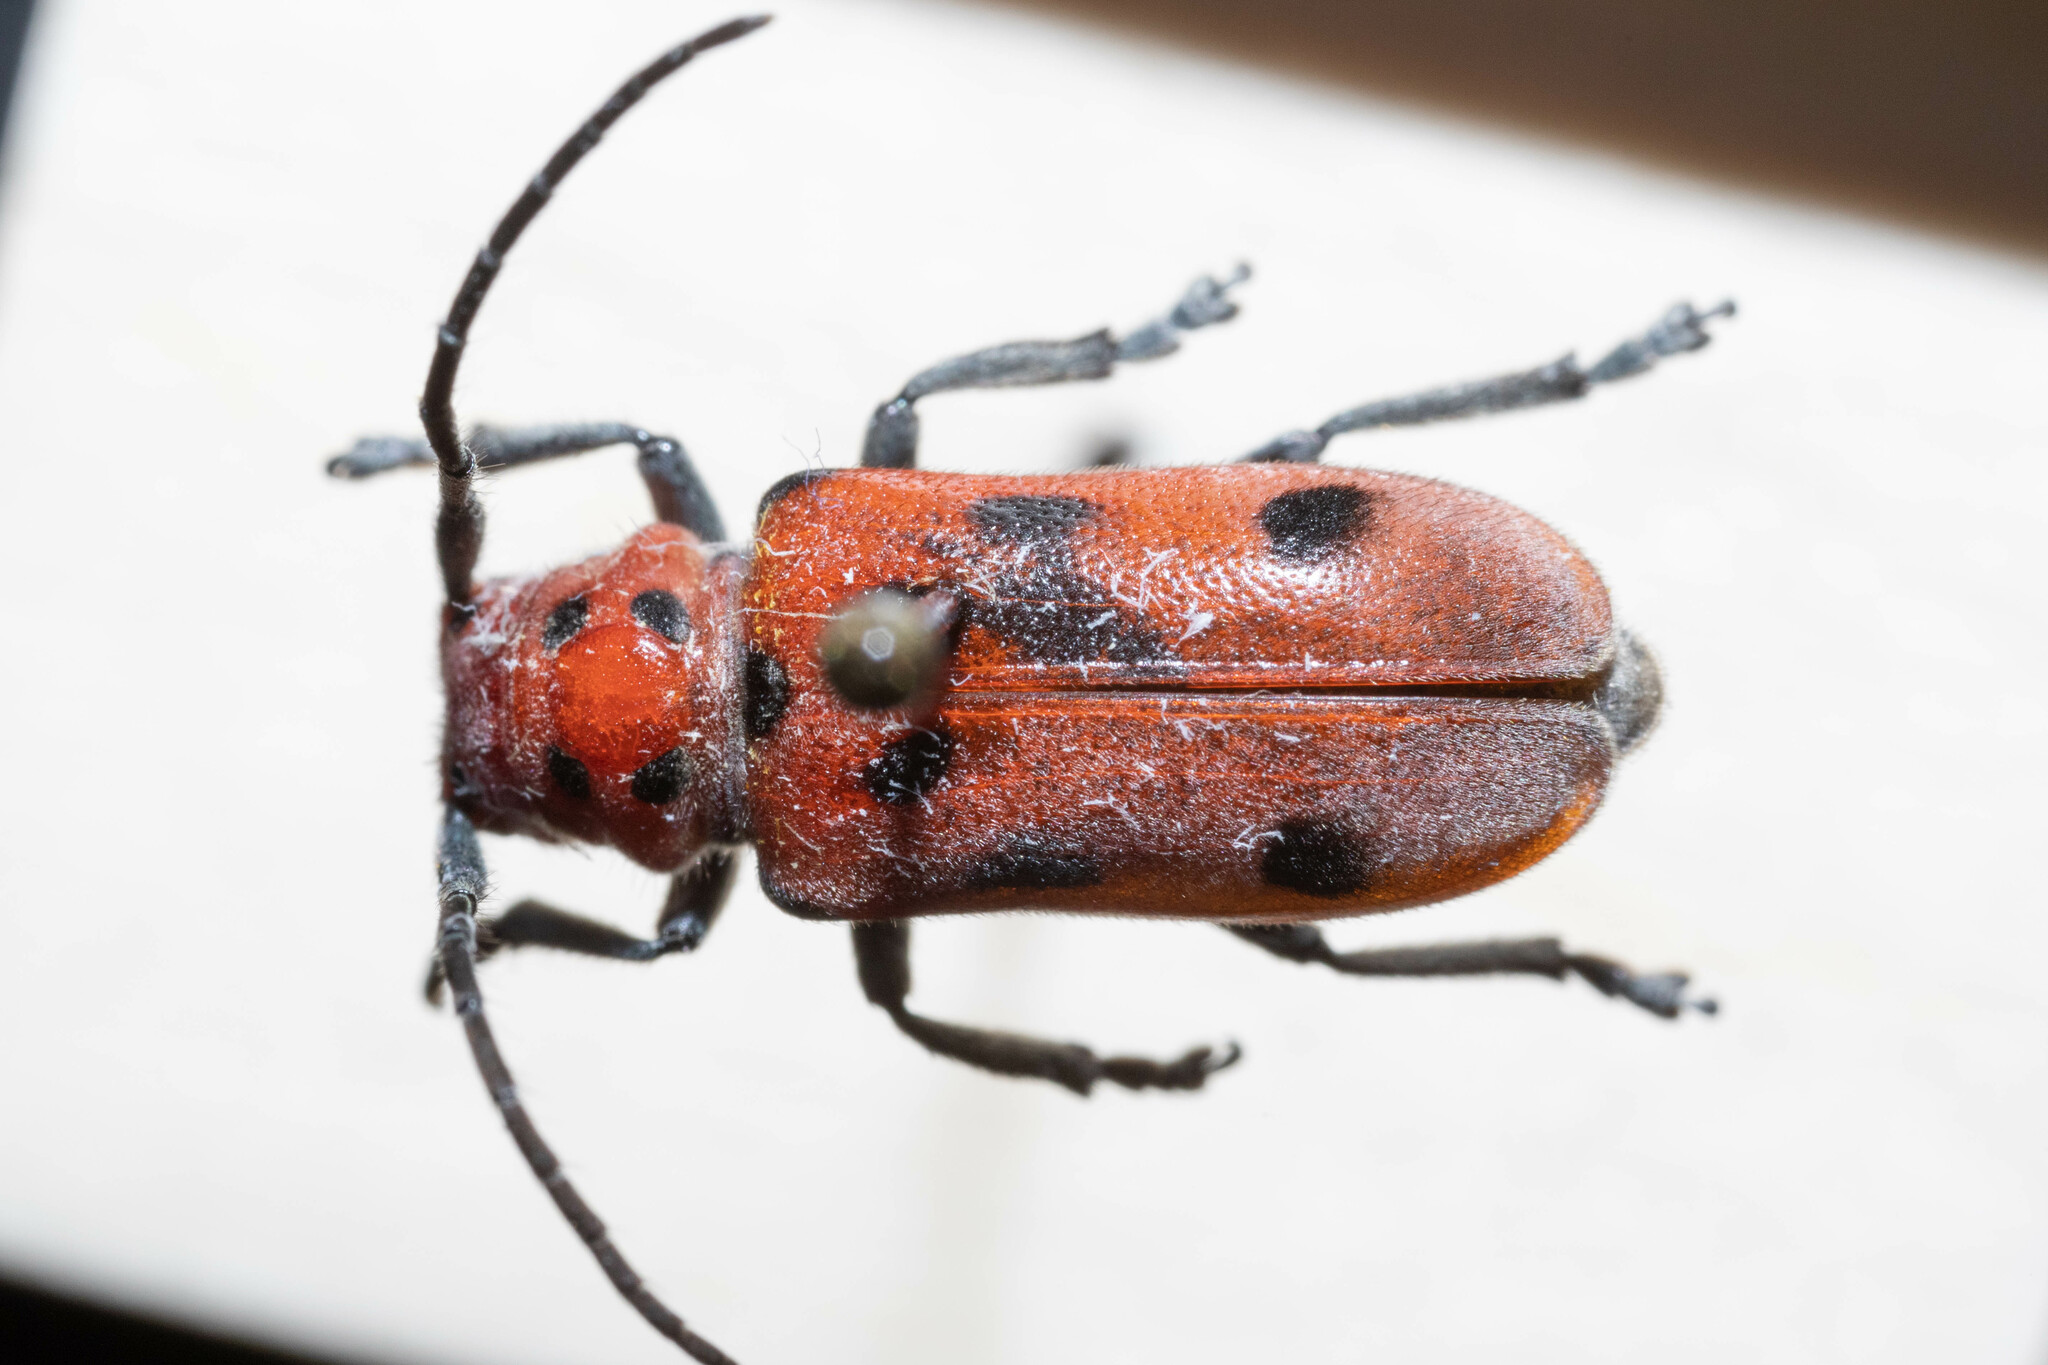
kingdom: Animalia
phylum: Arthropoda
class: Insecta
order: Coleoptera
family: Cerambycidae
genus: Tetraopes
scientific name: Tetraopes tetrophthalmus
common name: Red milkweed beetle
